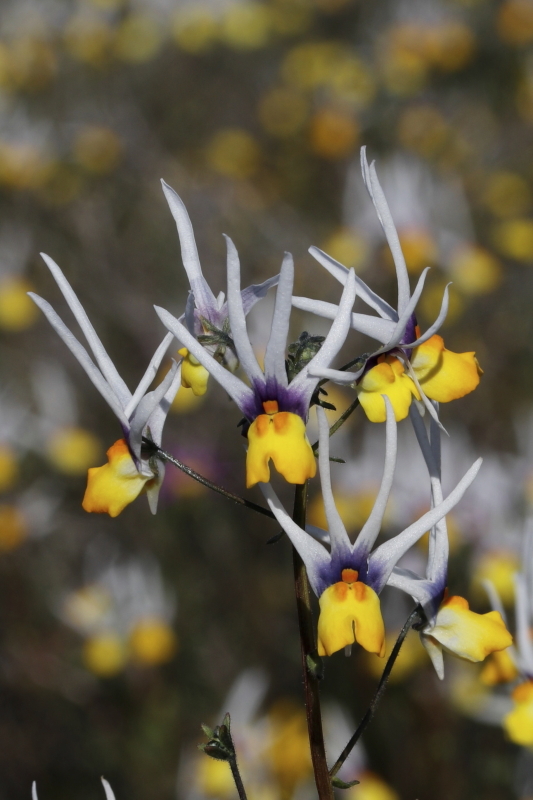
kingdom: Plantae
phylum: Tracheophyta
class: Magnoliopsida
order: Lamiales
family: Scrophulariaceae
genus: Nemesia
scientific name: Nemesia cheiranthus
